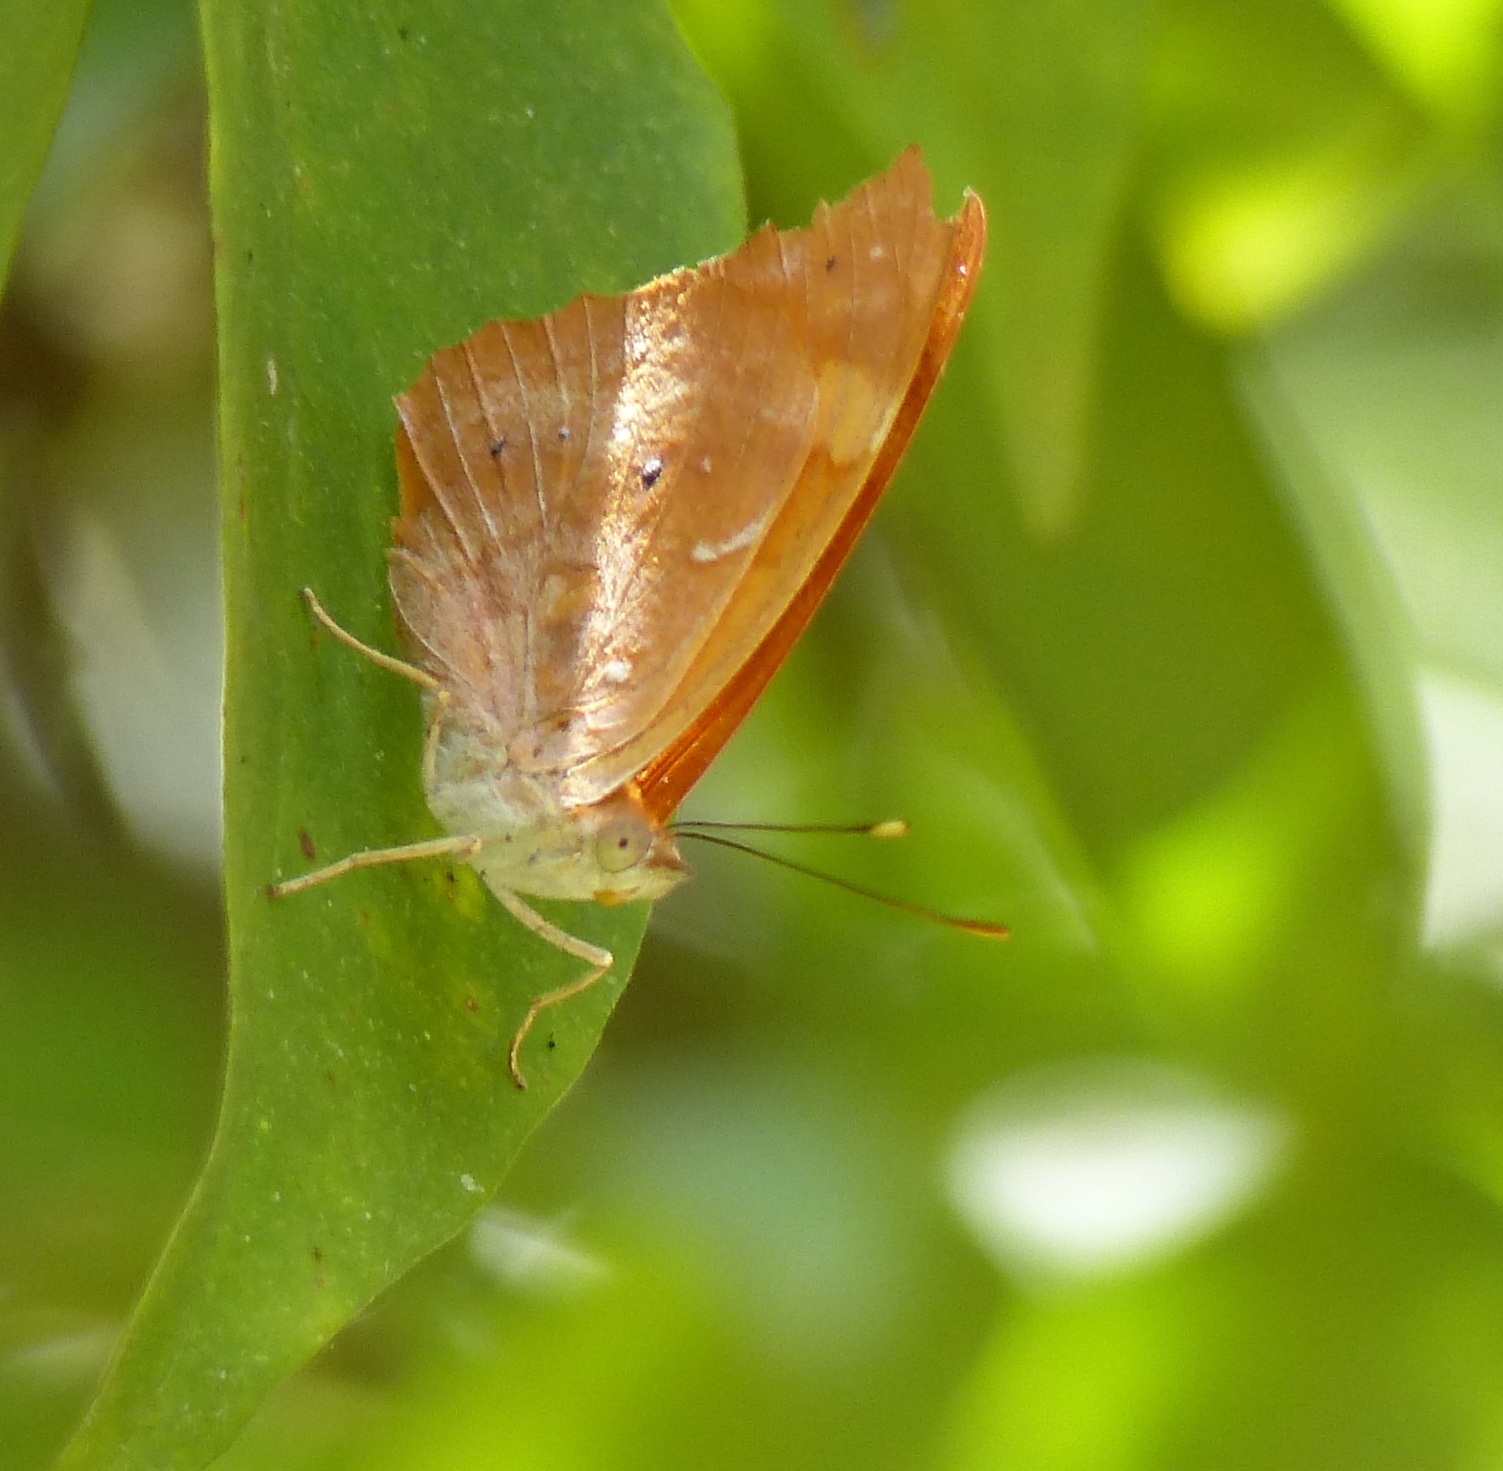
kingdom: Animalia
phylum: Arthropoda
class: Insecta
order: Lepidoptera
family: Nymphalidae
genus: Temenis
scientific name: Temenis laothoe
